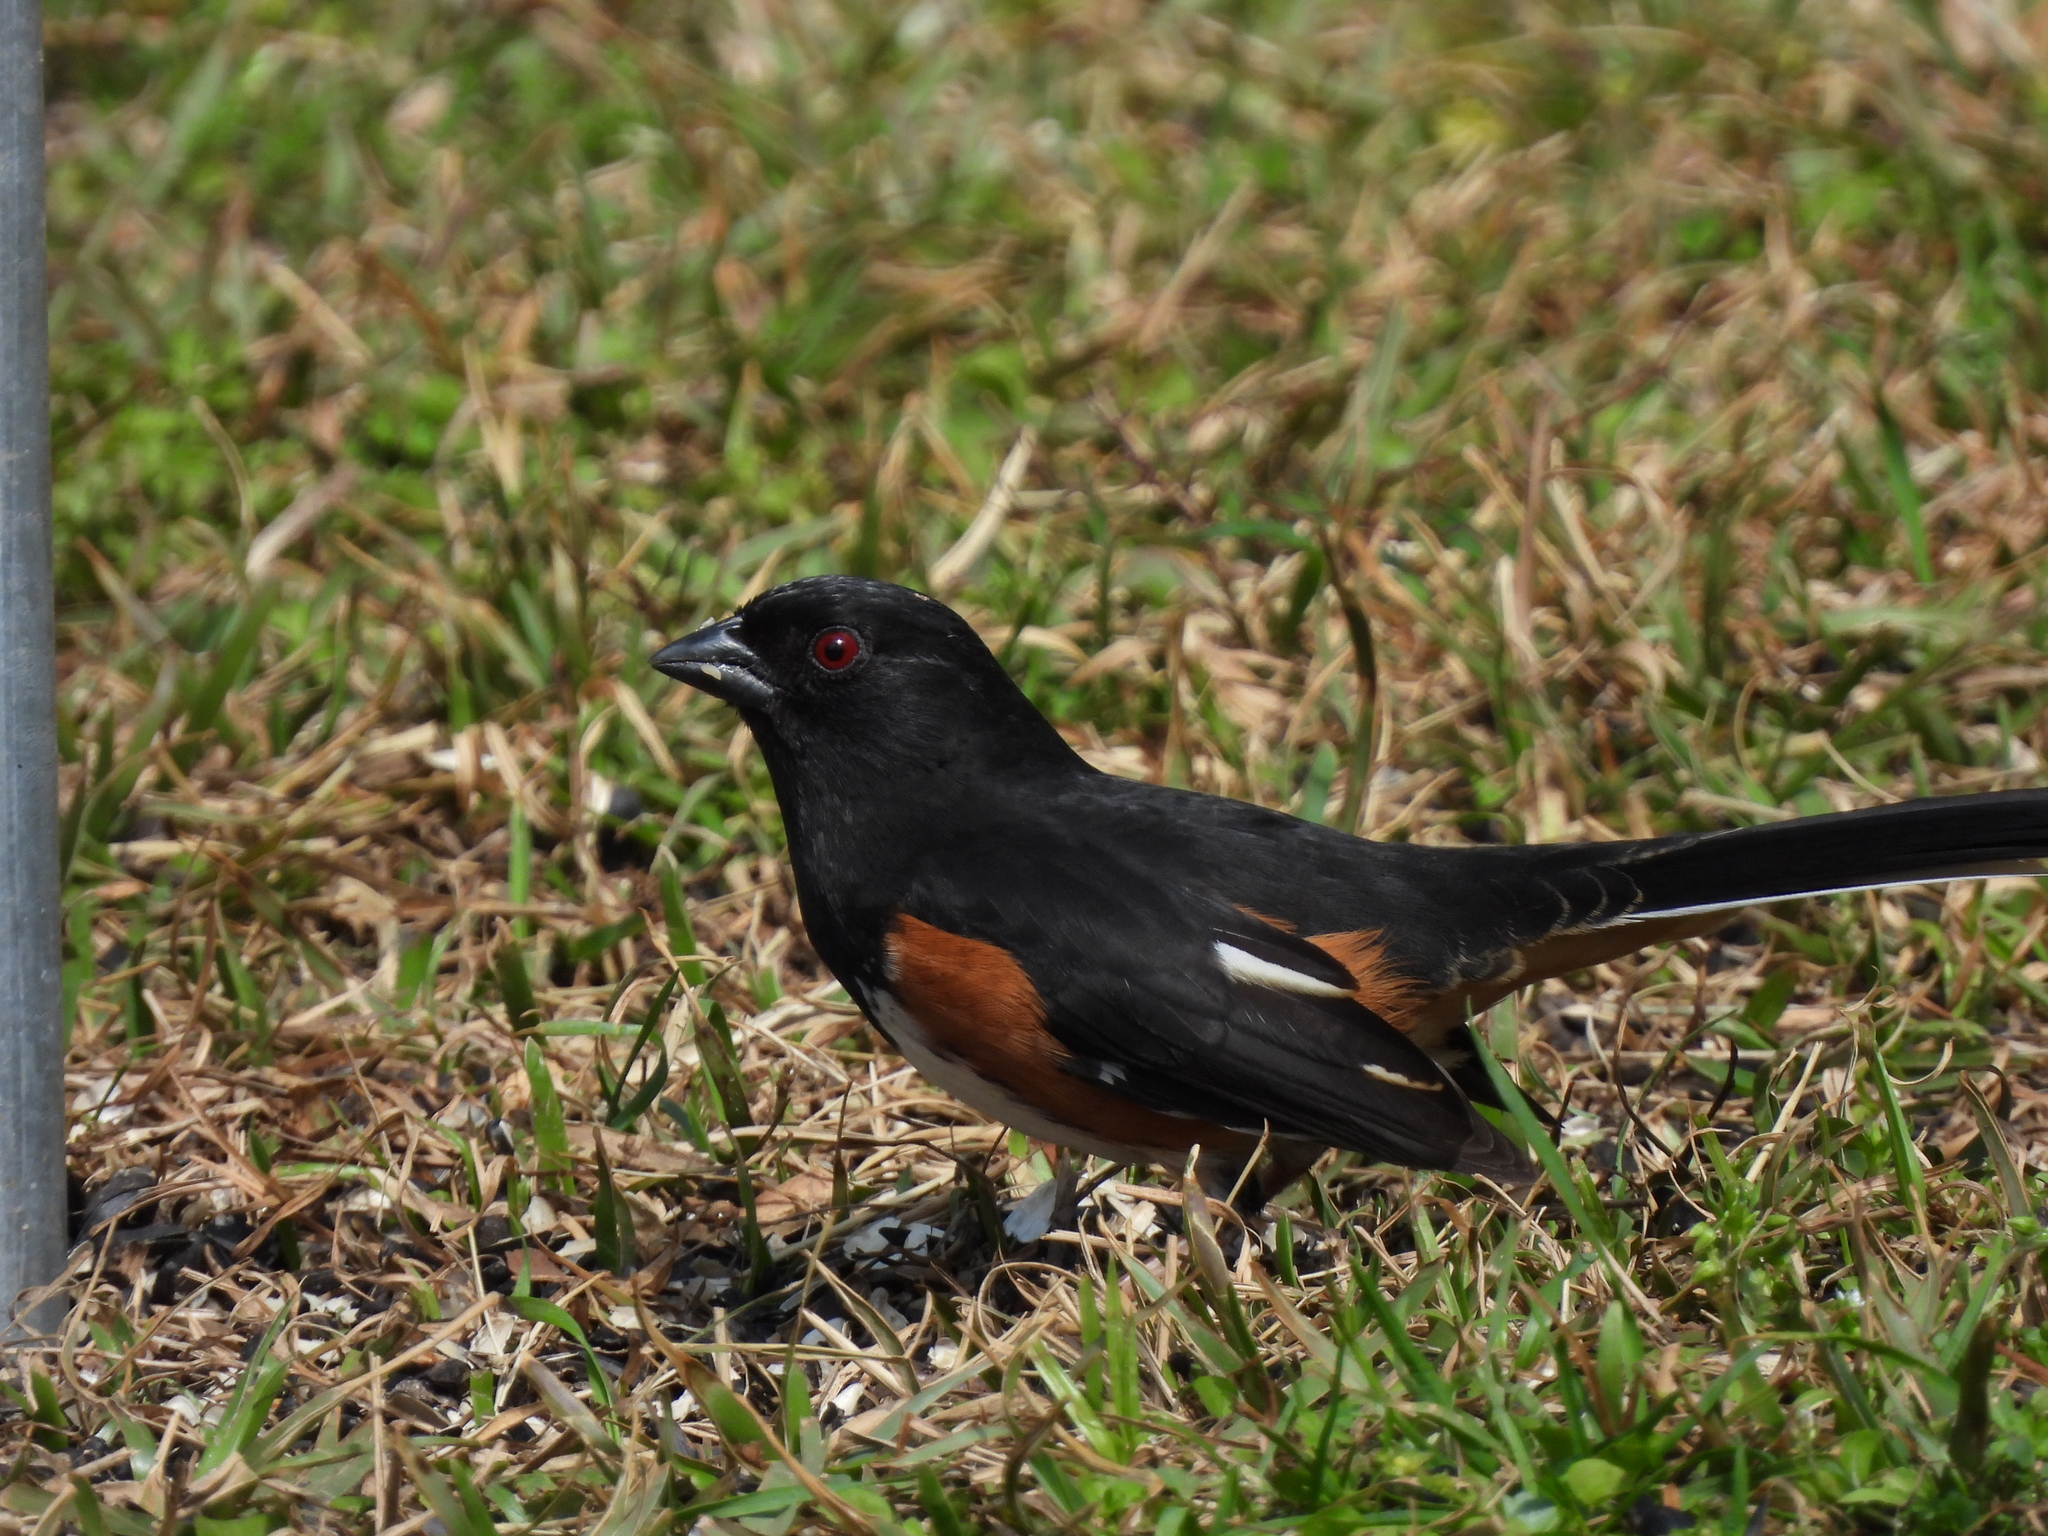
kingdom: Animalia
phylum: Chordata
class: Aves
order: Passeriformes
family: Passerellidae
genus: Pipilo
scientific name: Pipilo erythrophthalmus
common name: Eastern towhee
